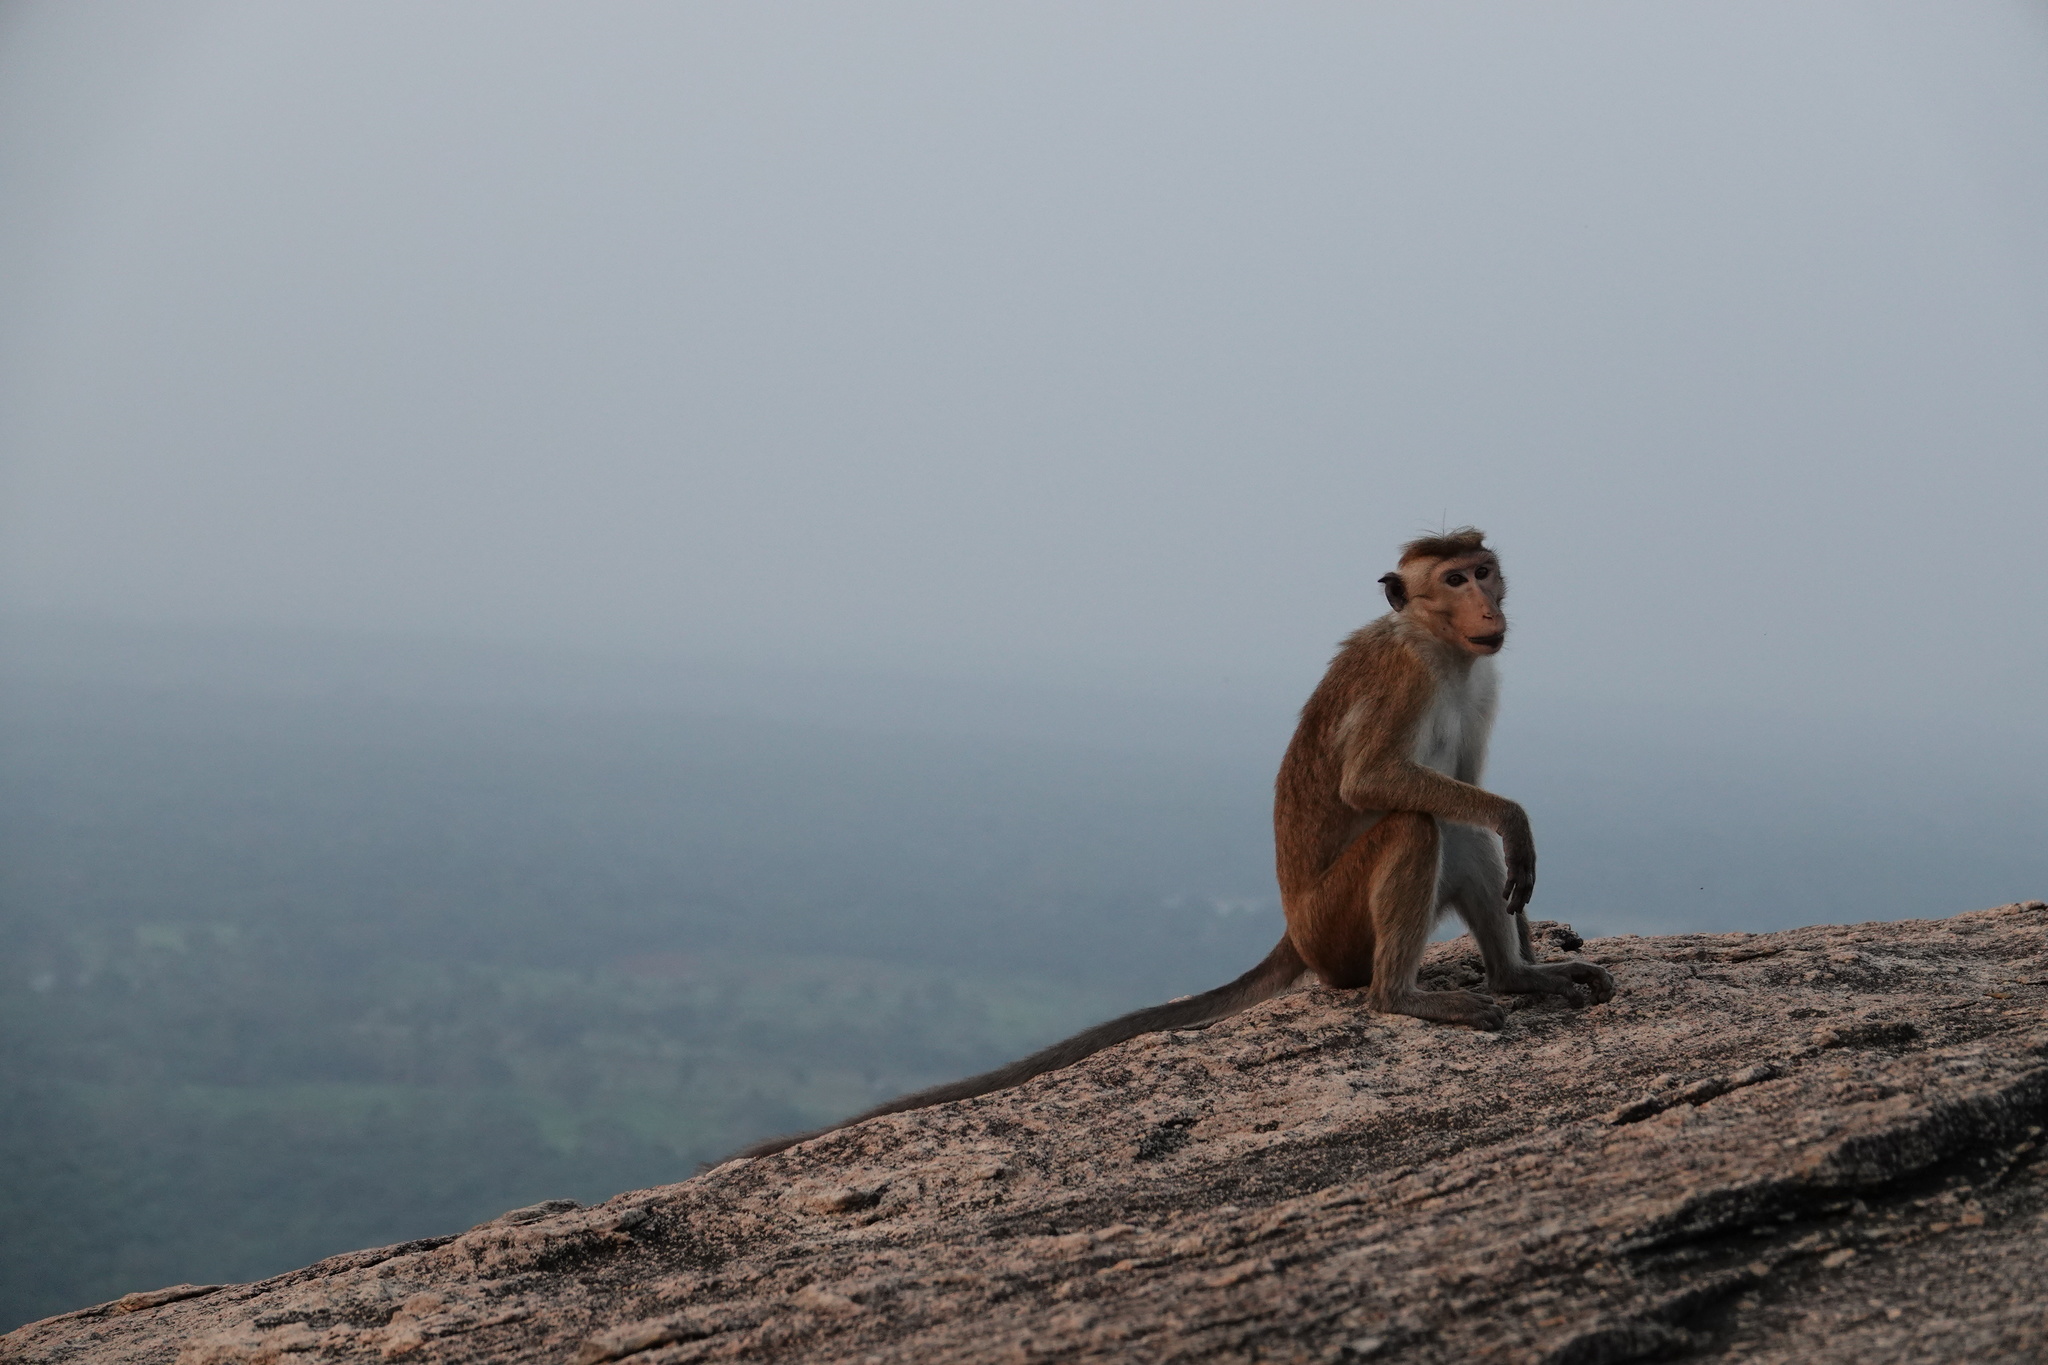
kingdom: Animalia
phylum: Chordata
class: Mammalia
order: Primates
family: Cercopithecidae
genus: Macaca
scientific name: Macaca sinica
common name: Toque macaque
